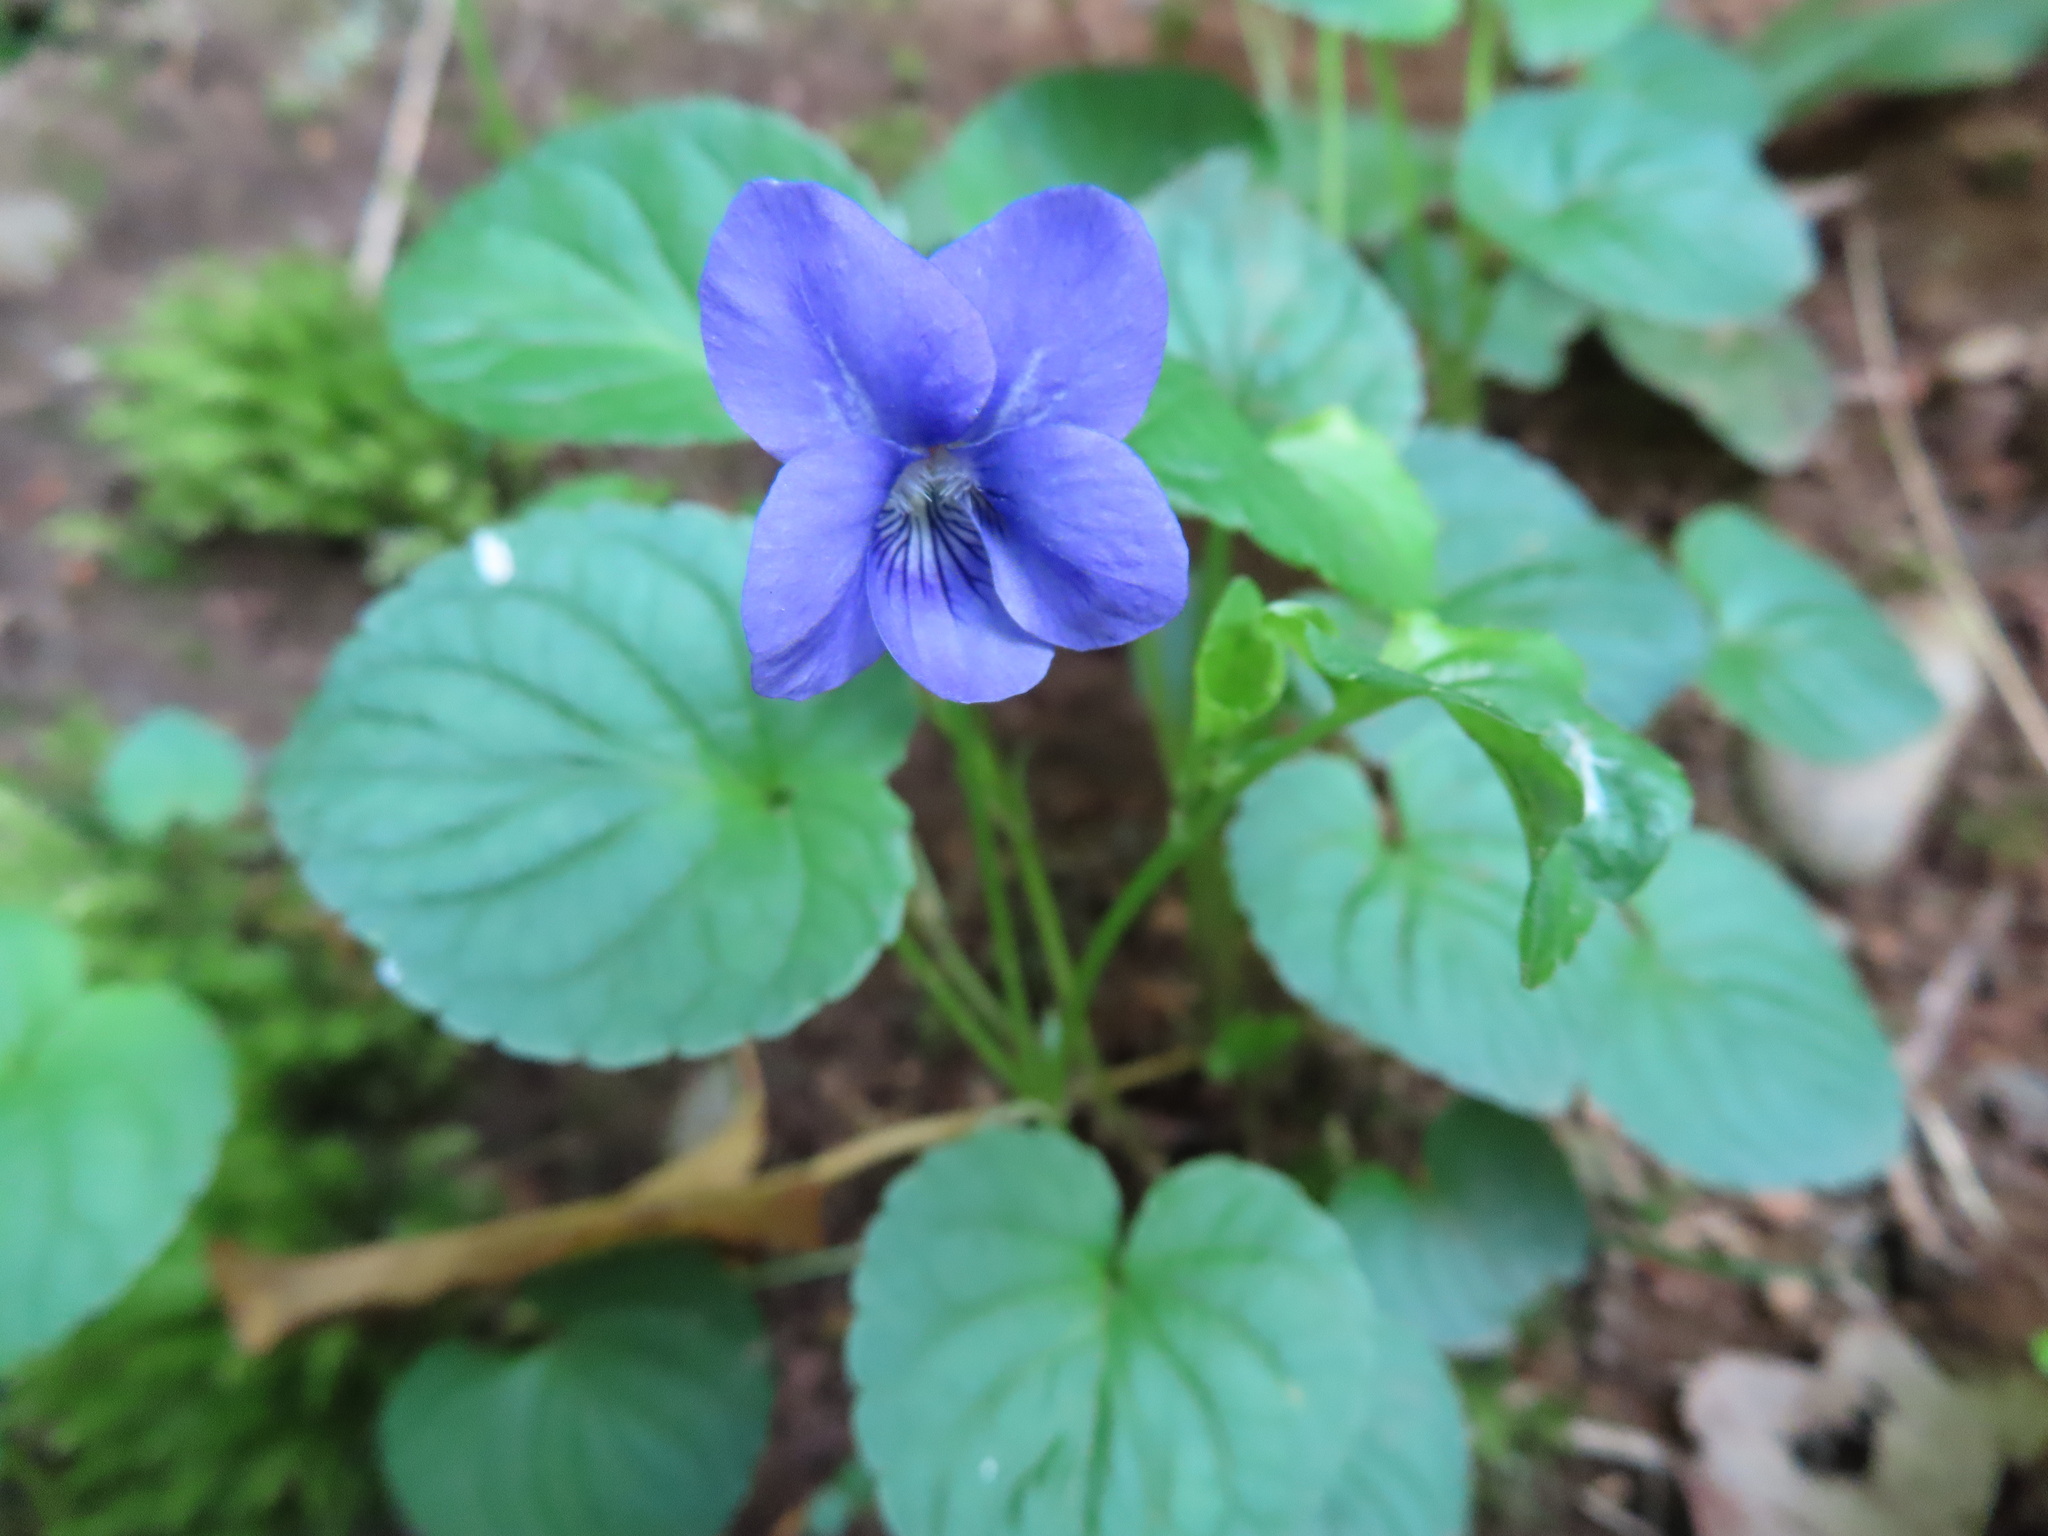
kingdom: Plantae
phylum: Tracheophyta
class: Magnoliopsida
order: Malpighiales
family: Violaceae
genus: Viola
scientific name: Viola riviniana
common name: Common dog-violet
